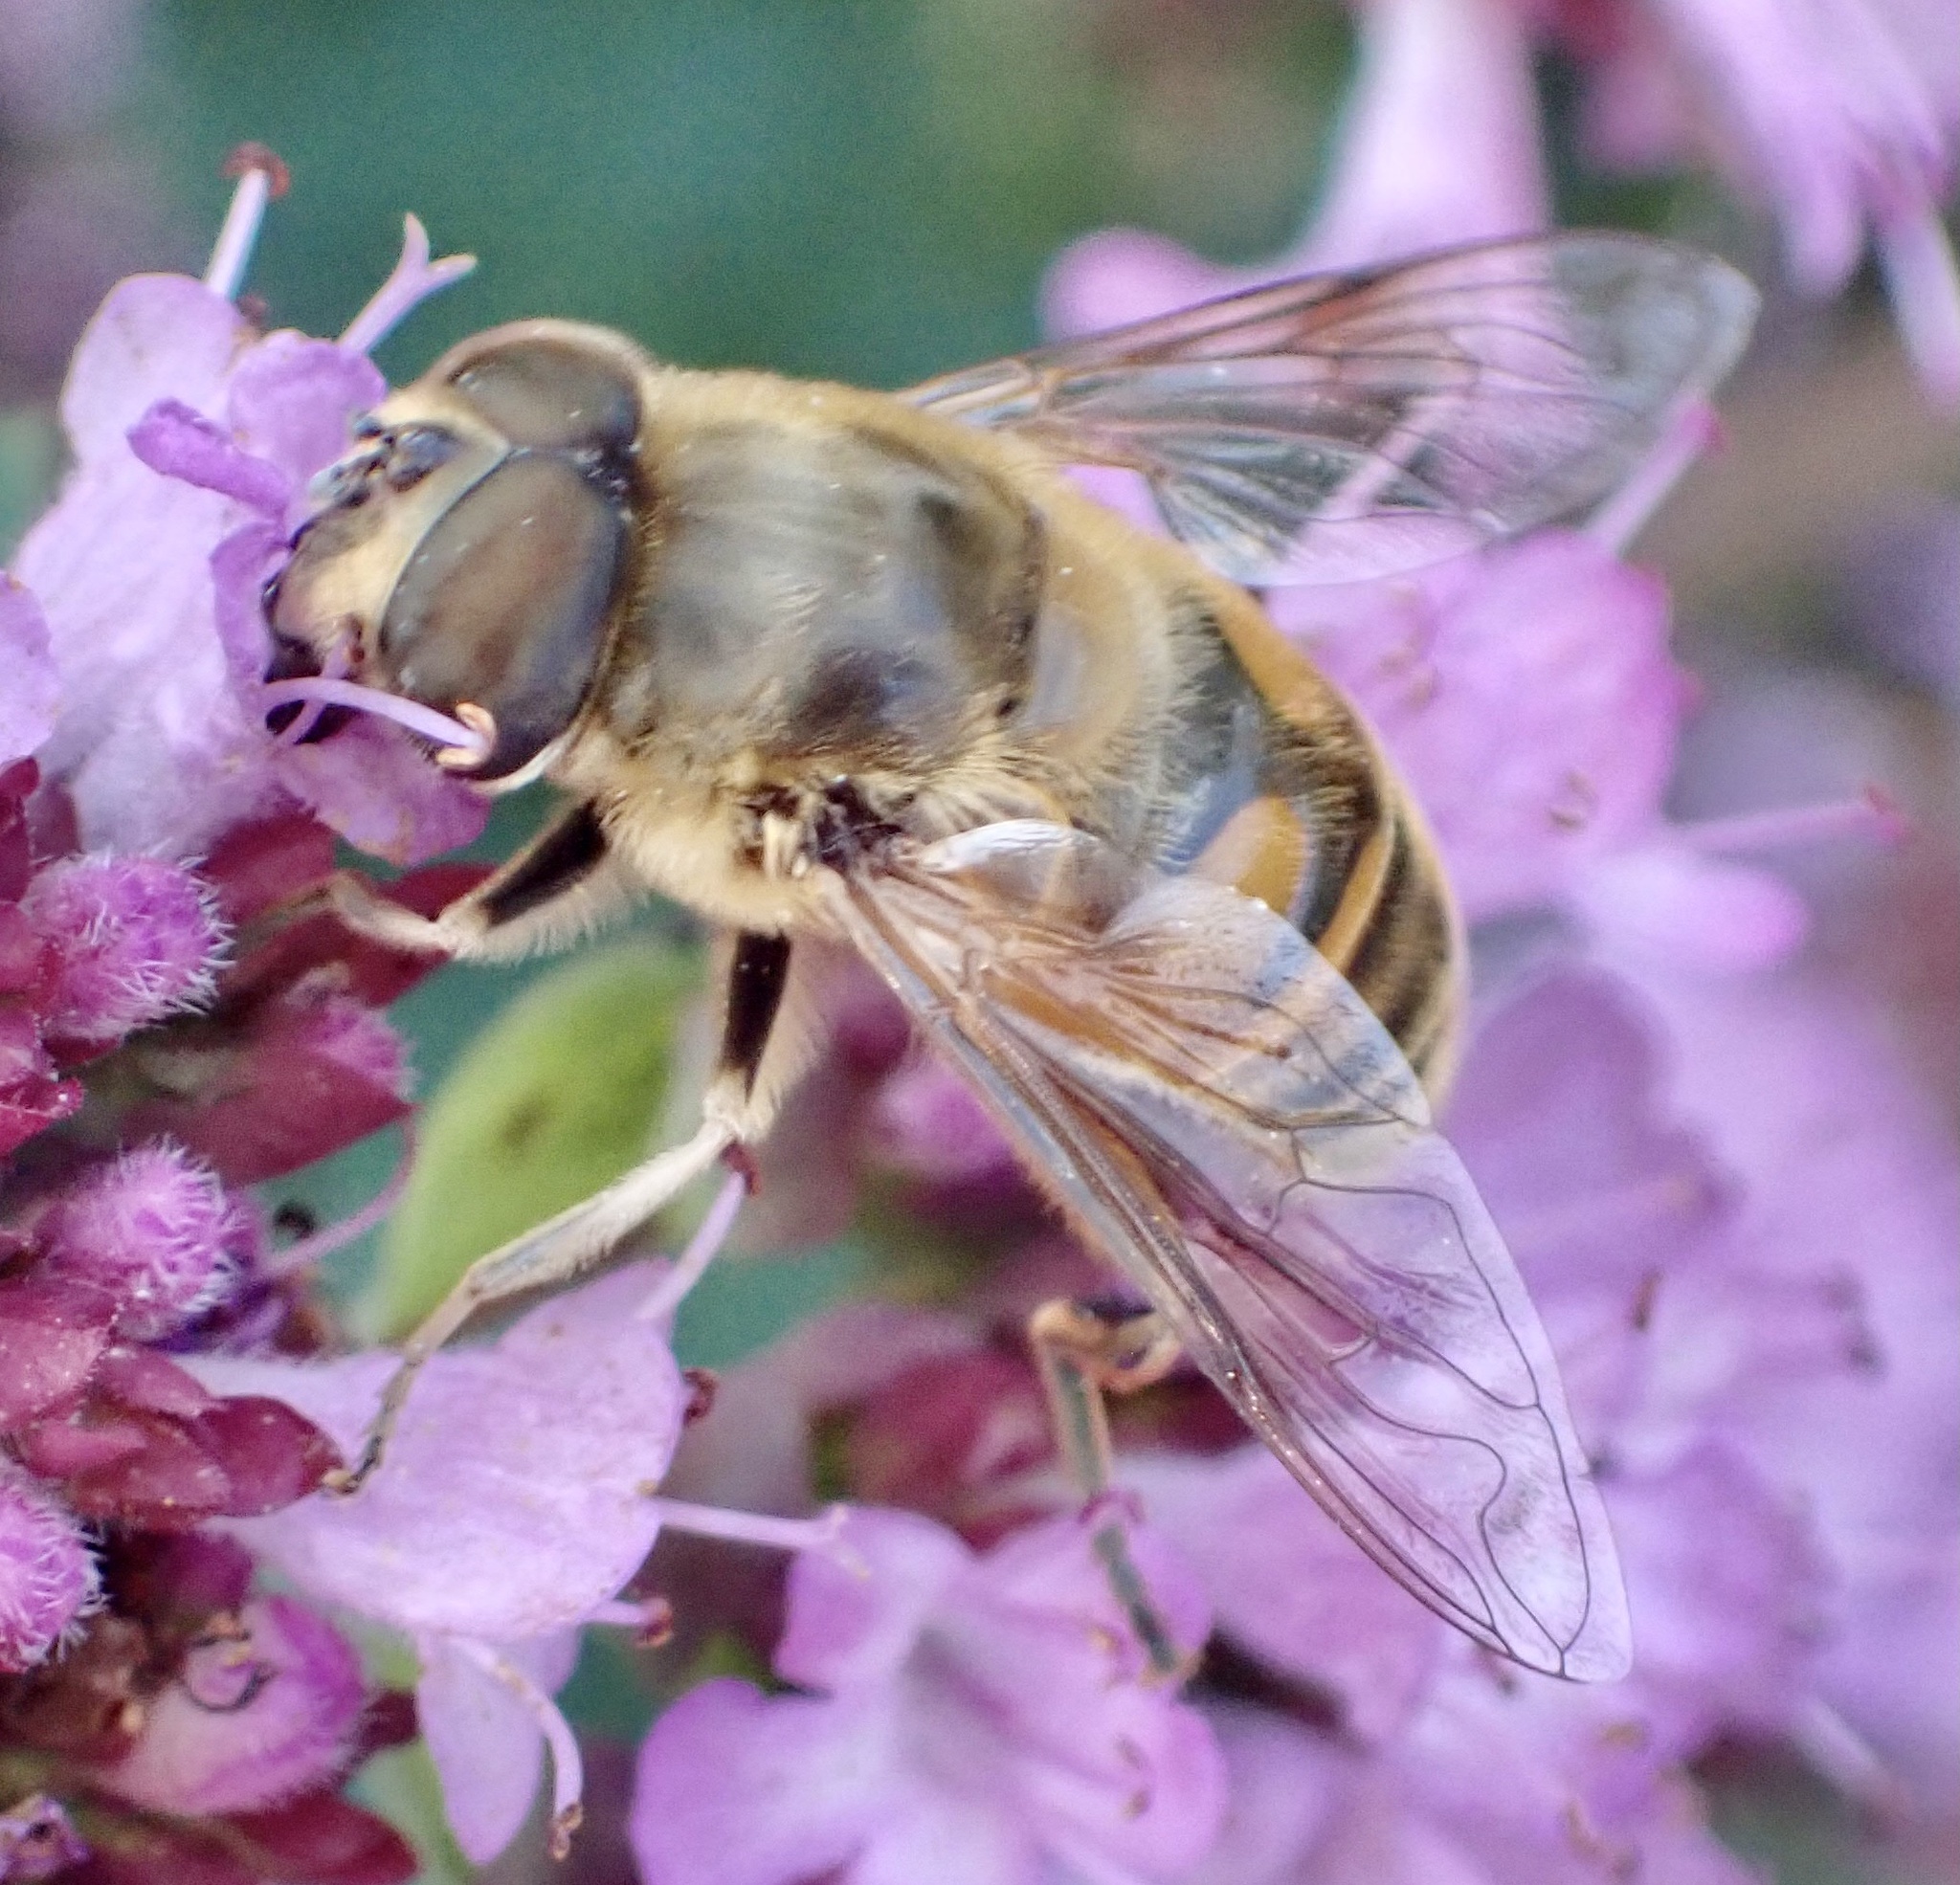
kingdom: Animalia
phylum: Arthropoda
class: Insecta
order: Diptera
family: Syrphidae
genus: Eristalis
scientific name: Eristalis tenax
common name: Drone fly
